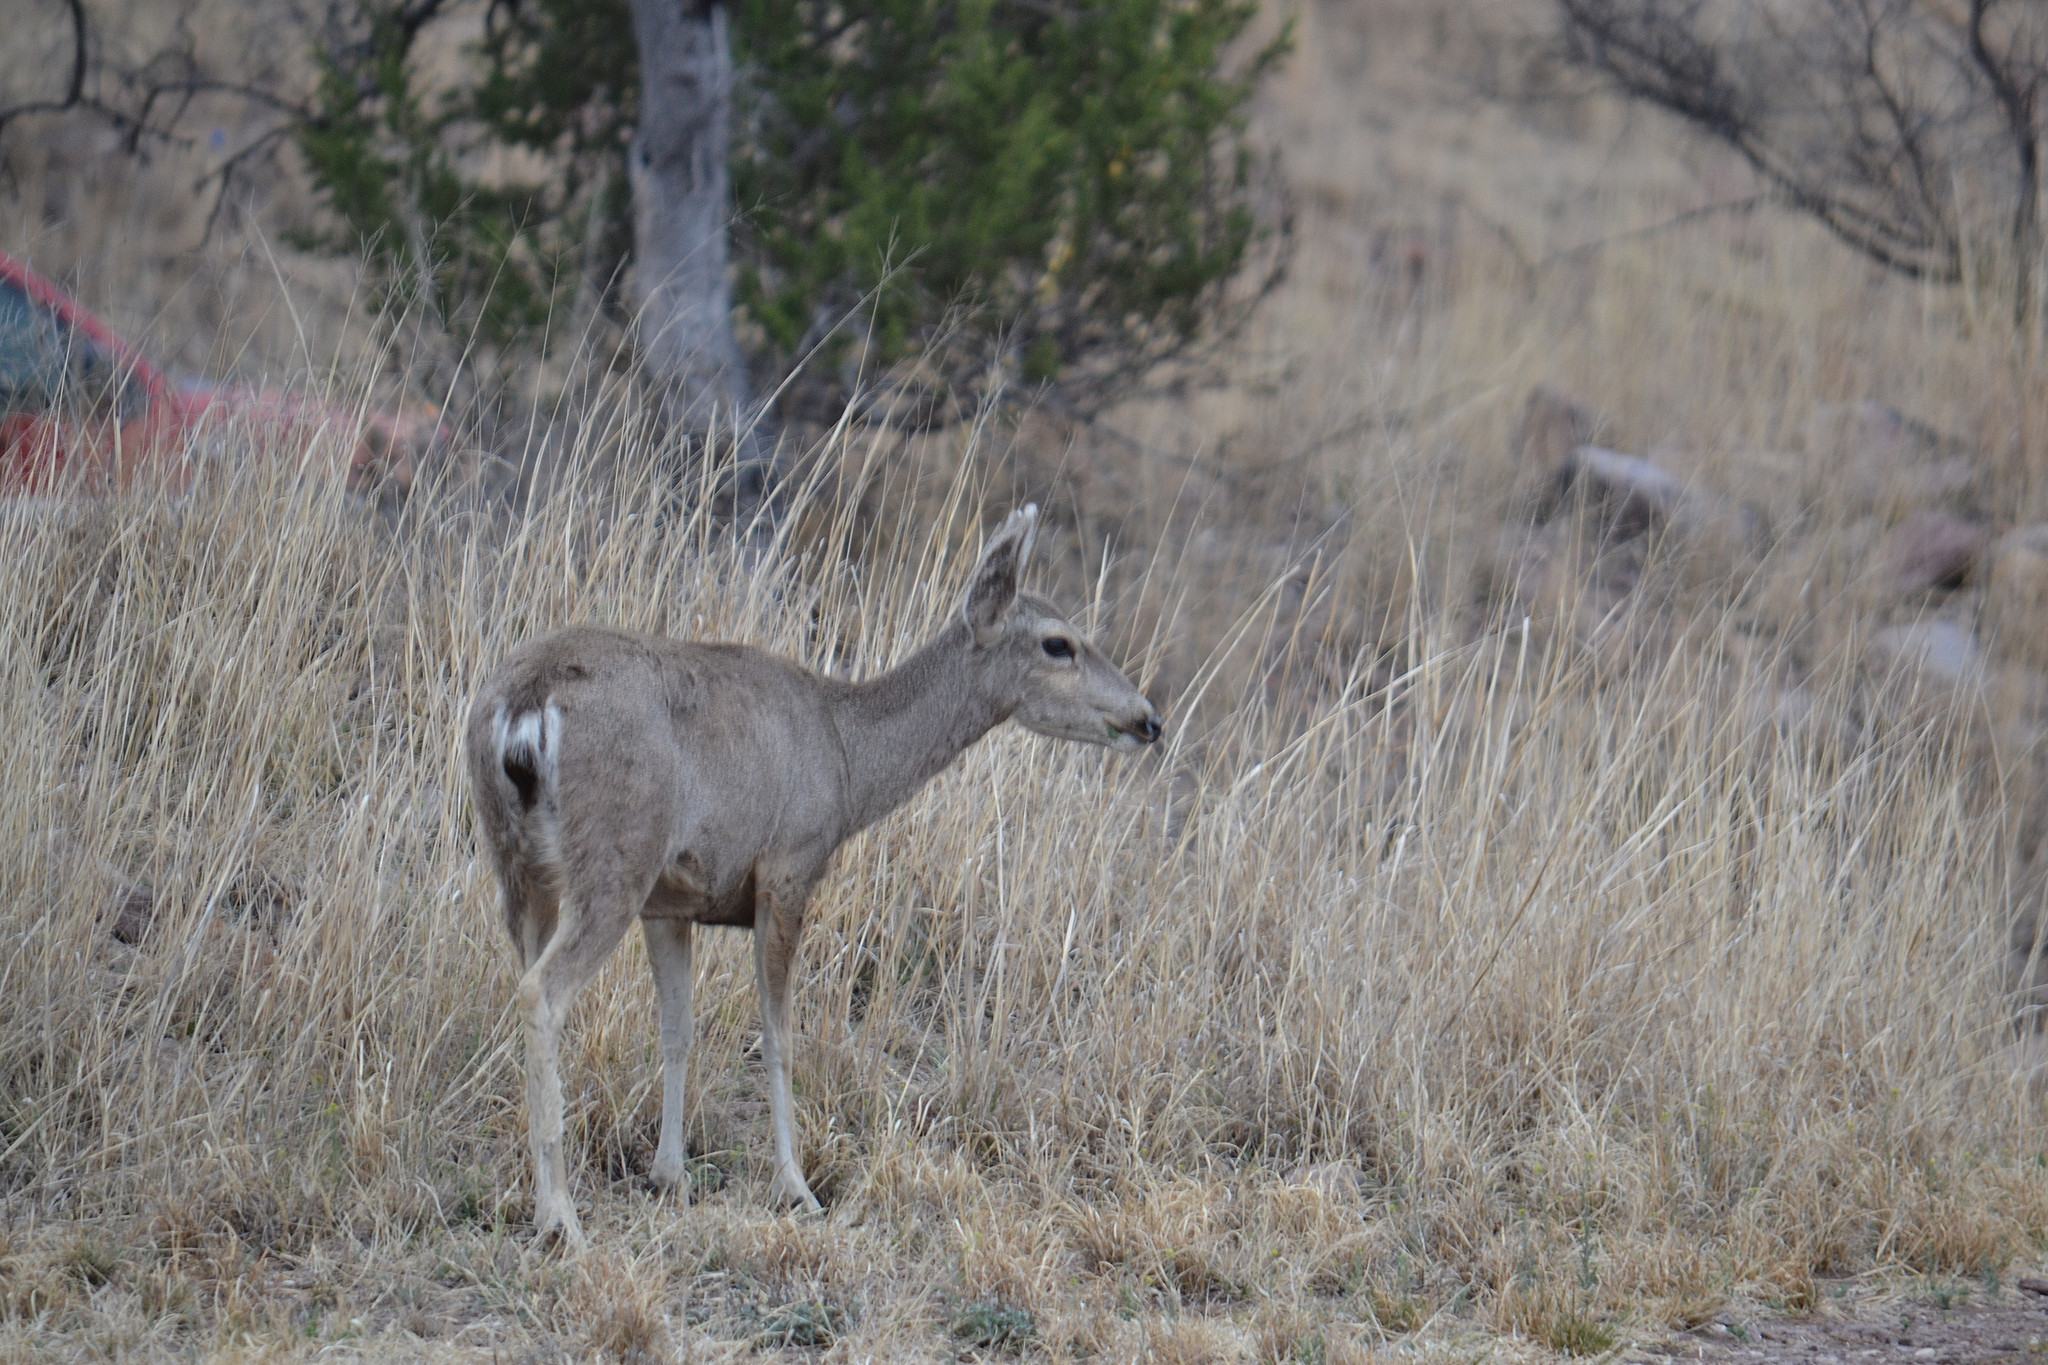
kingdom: Animalia
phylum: Chordata
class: Mammalia
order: Artiodactyla
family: Cervidae
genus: Odocoileus
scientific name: Odocoileus hemionus
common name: Mule deer
